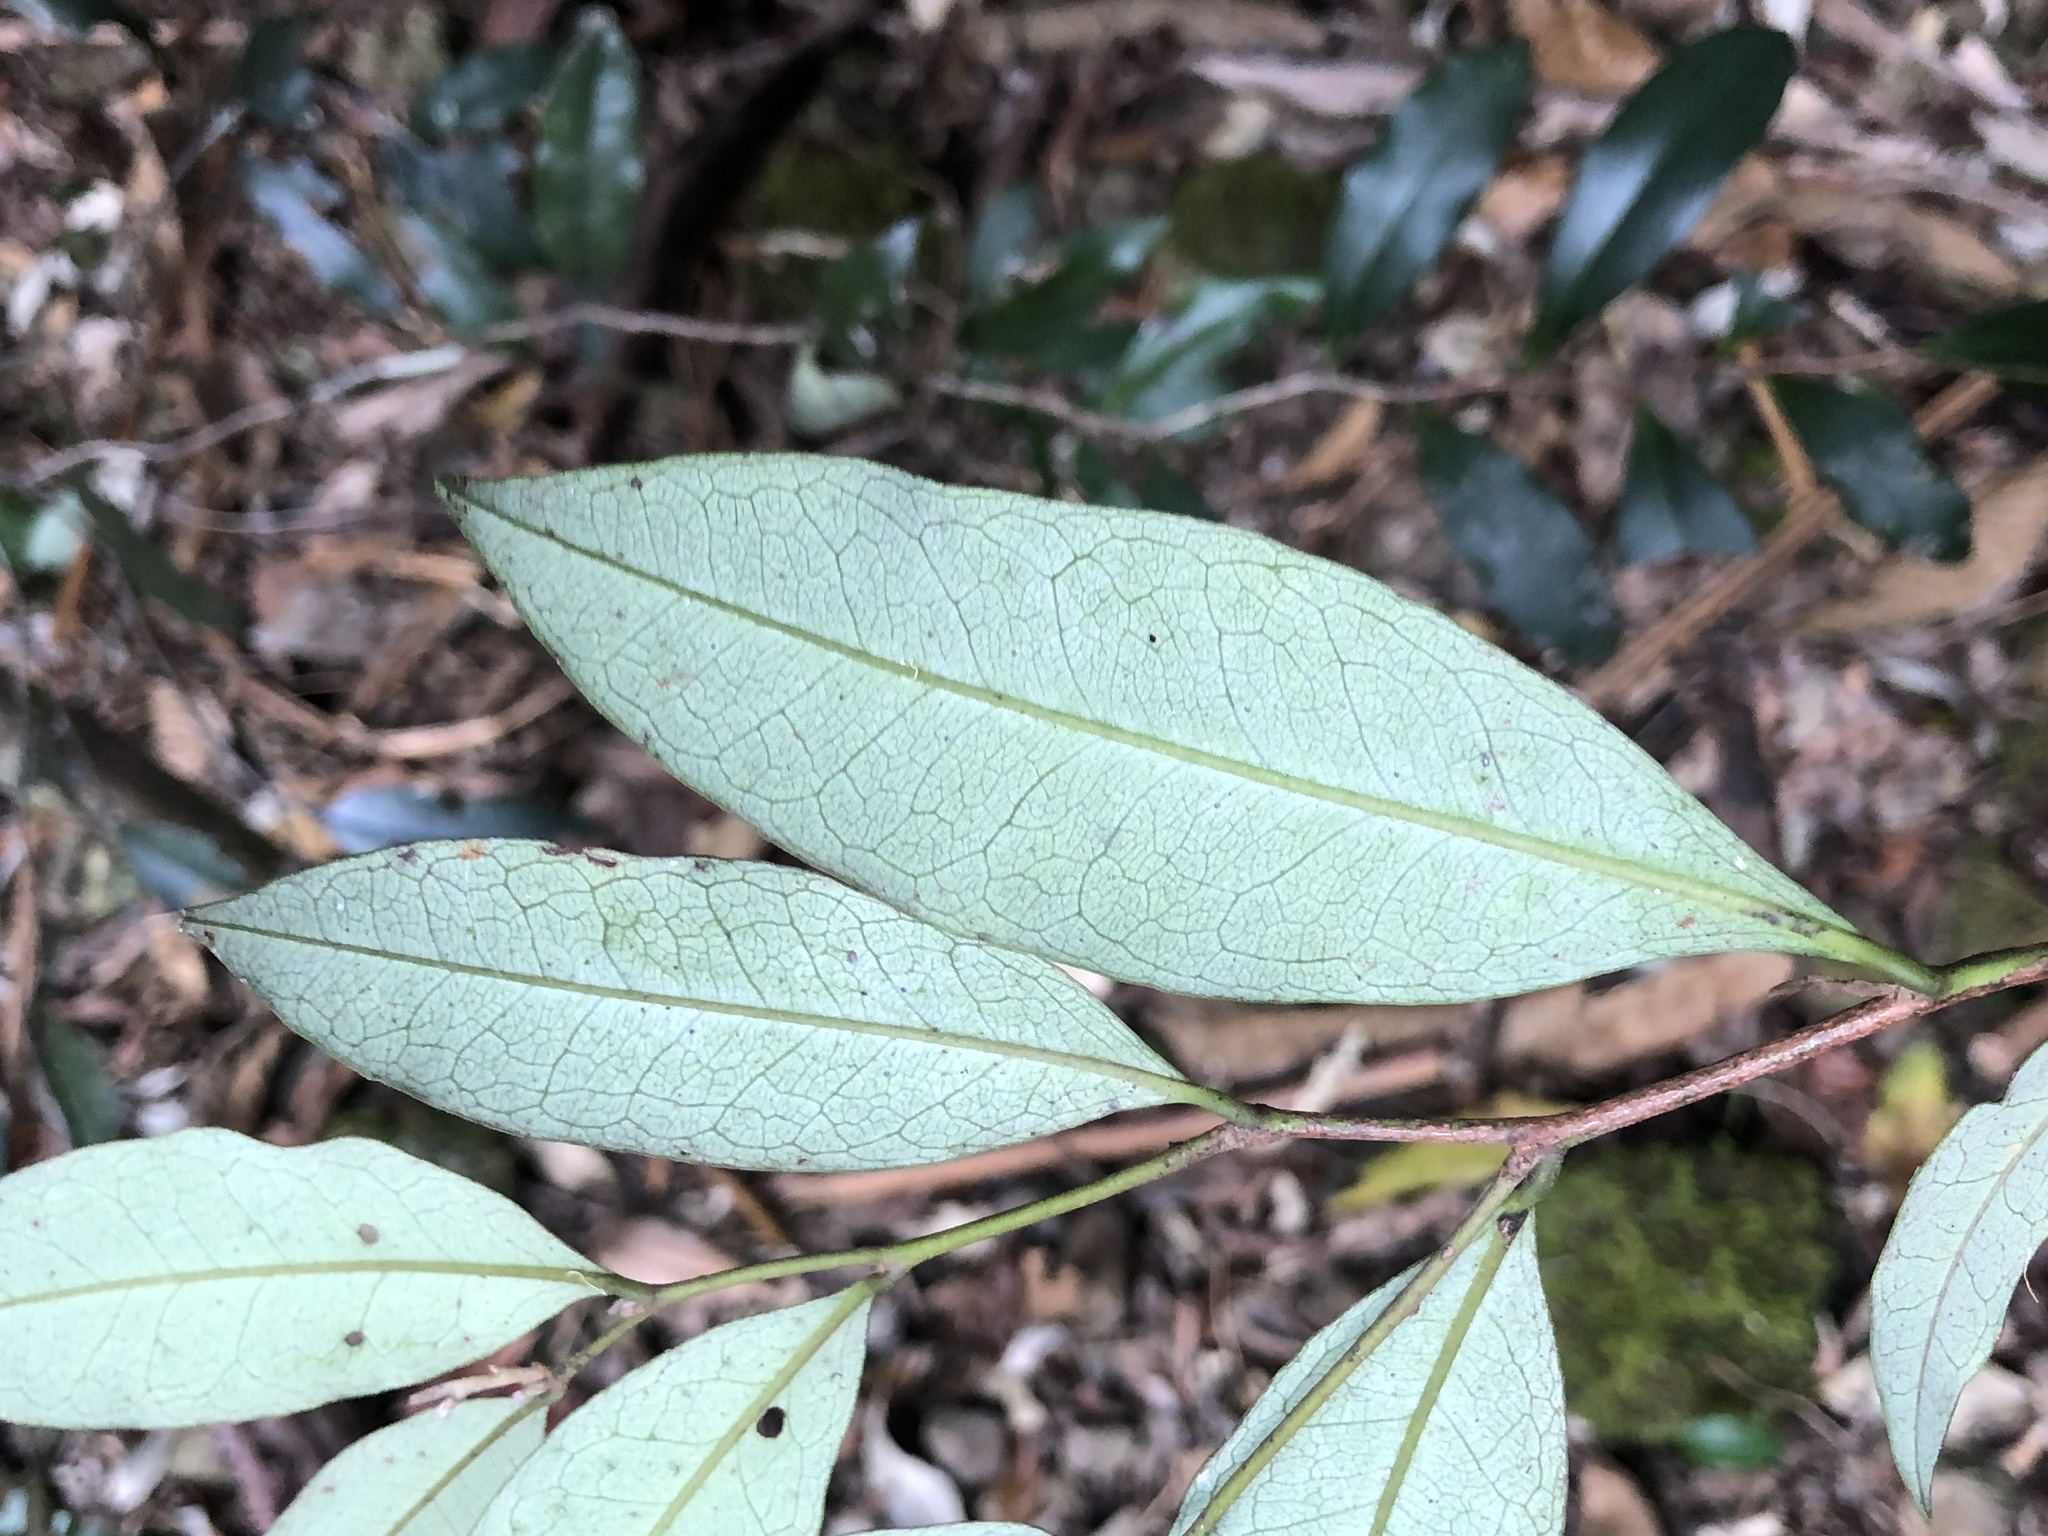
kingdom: Plantae
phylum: Tracheophyta
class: Magnoliopsida
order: Ericales
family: Ebenaceae
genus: Diospyros
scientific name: Diospyros pentamera
